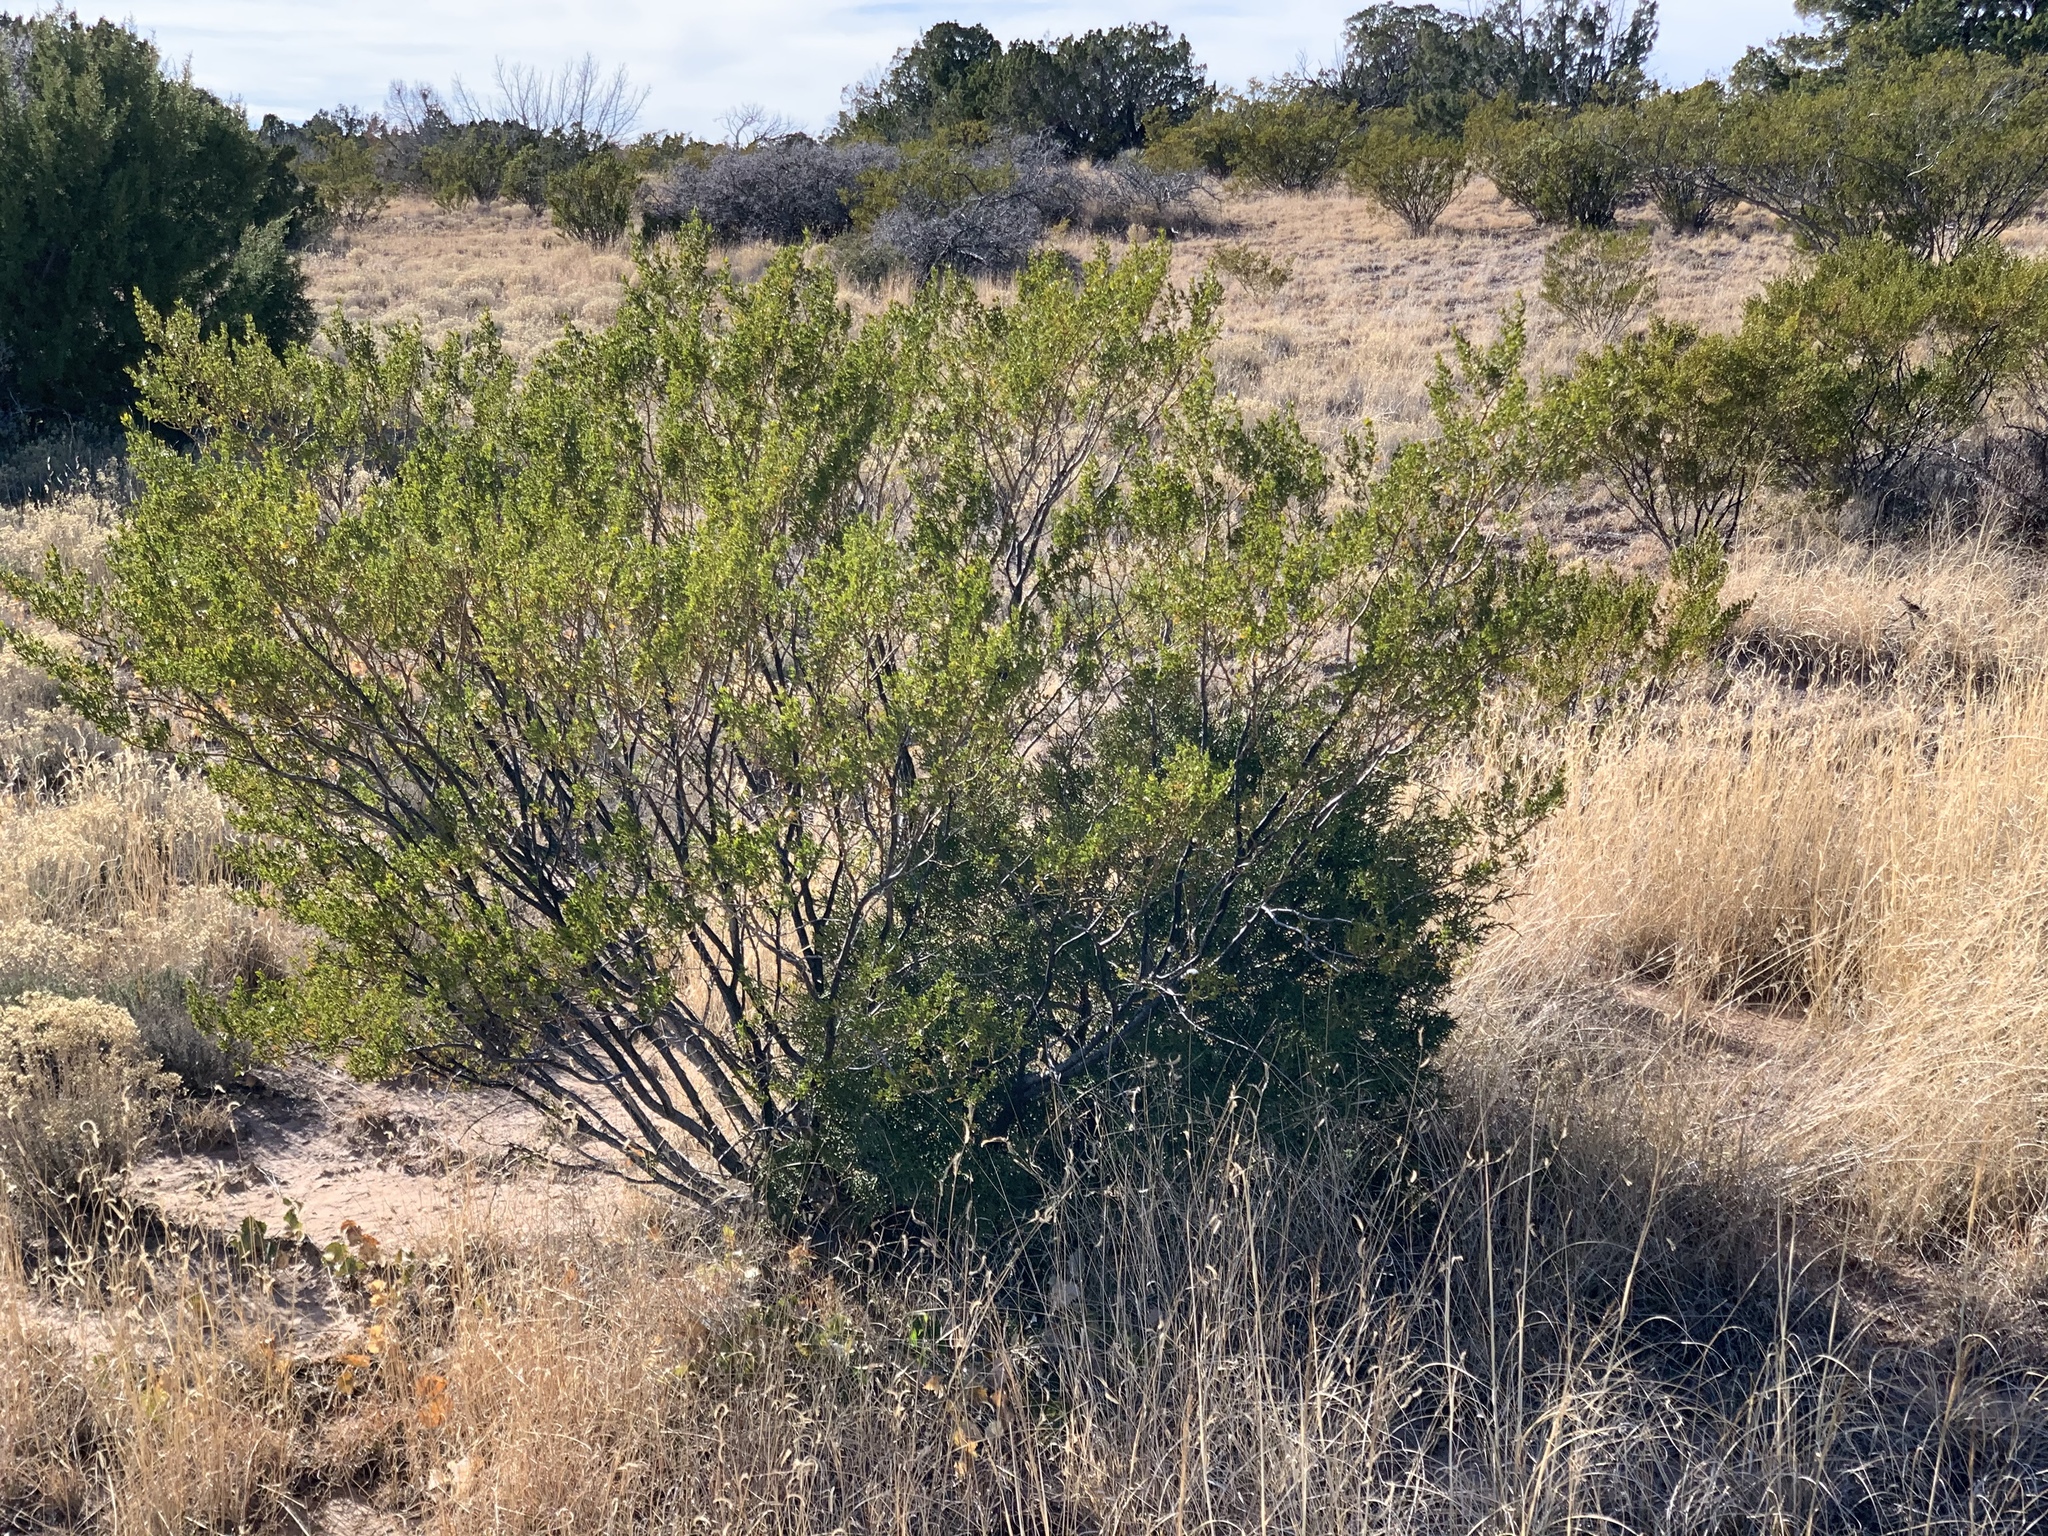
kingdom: Plantae
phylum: Tracheophyta
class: Magnoliopsida
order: Zygophyllales
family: Zygophyllaceae
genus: Larrea
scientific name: Larrea tridentata
